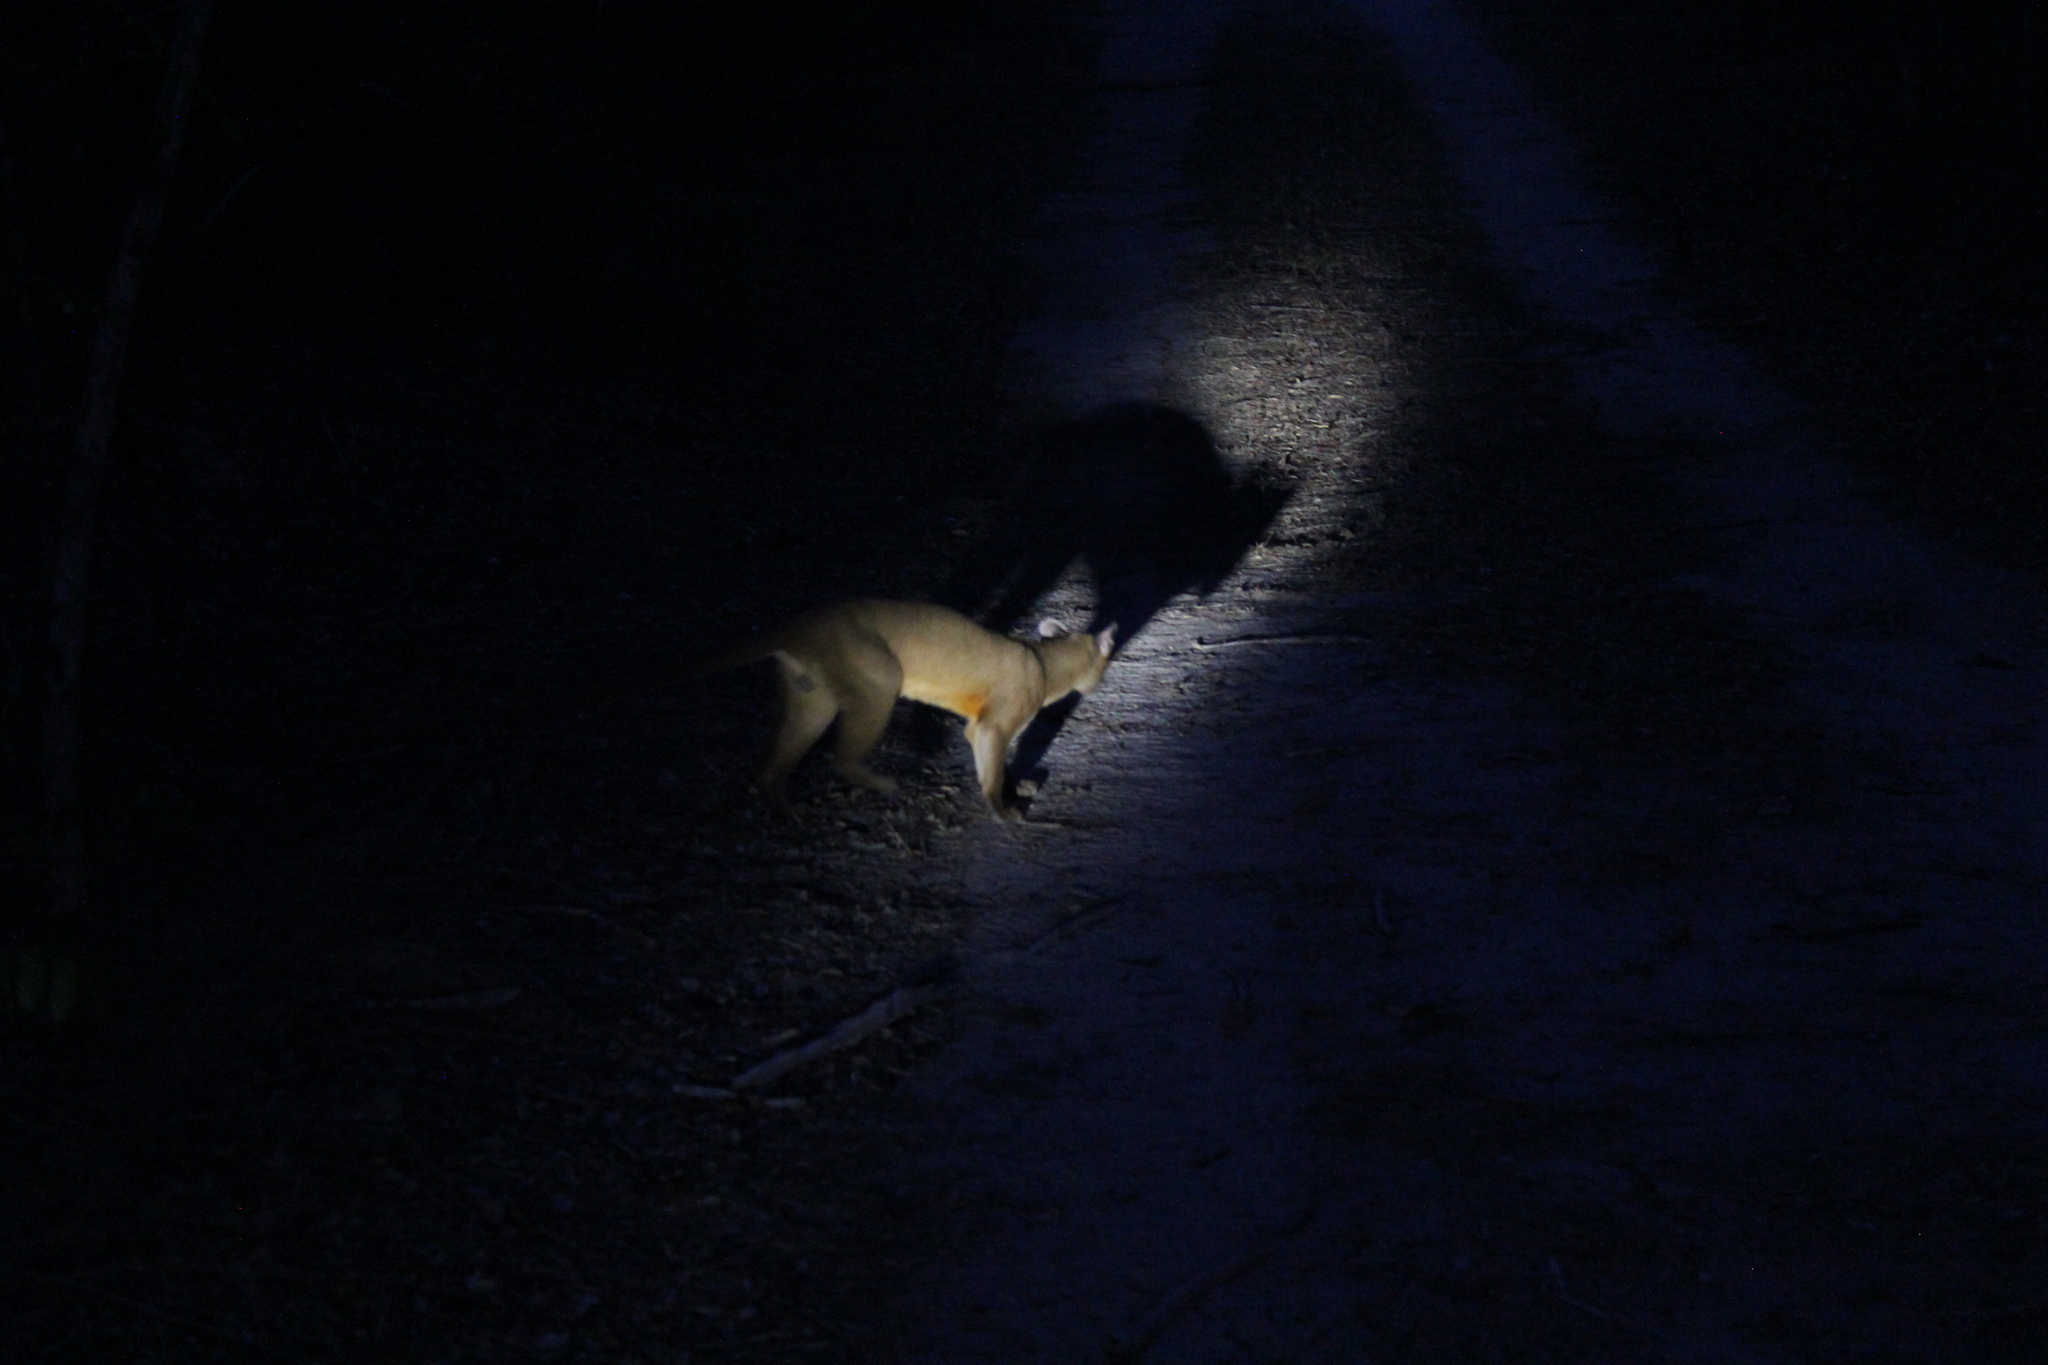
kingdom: Animalia
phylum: Chordata
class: Mammalia
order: Carnivora
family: Eupleridae
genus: Cryptoprocta
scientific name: Cryptoprocta ferox
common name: Fossa
